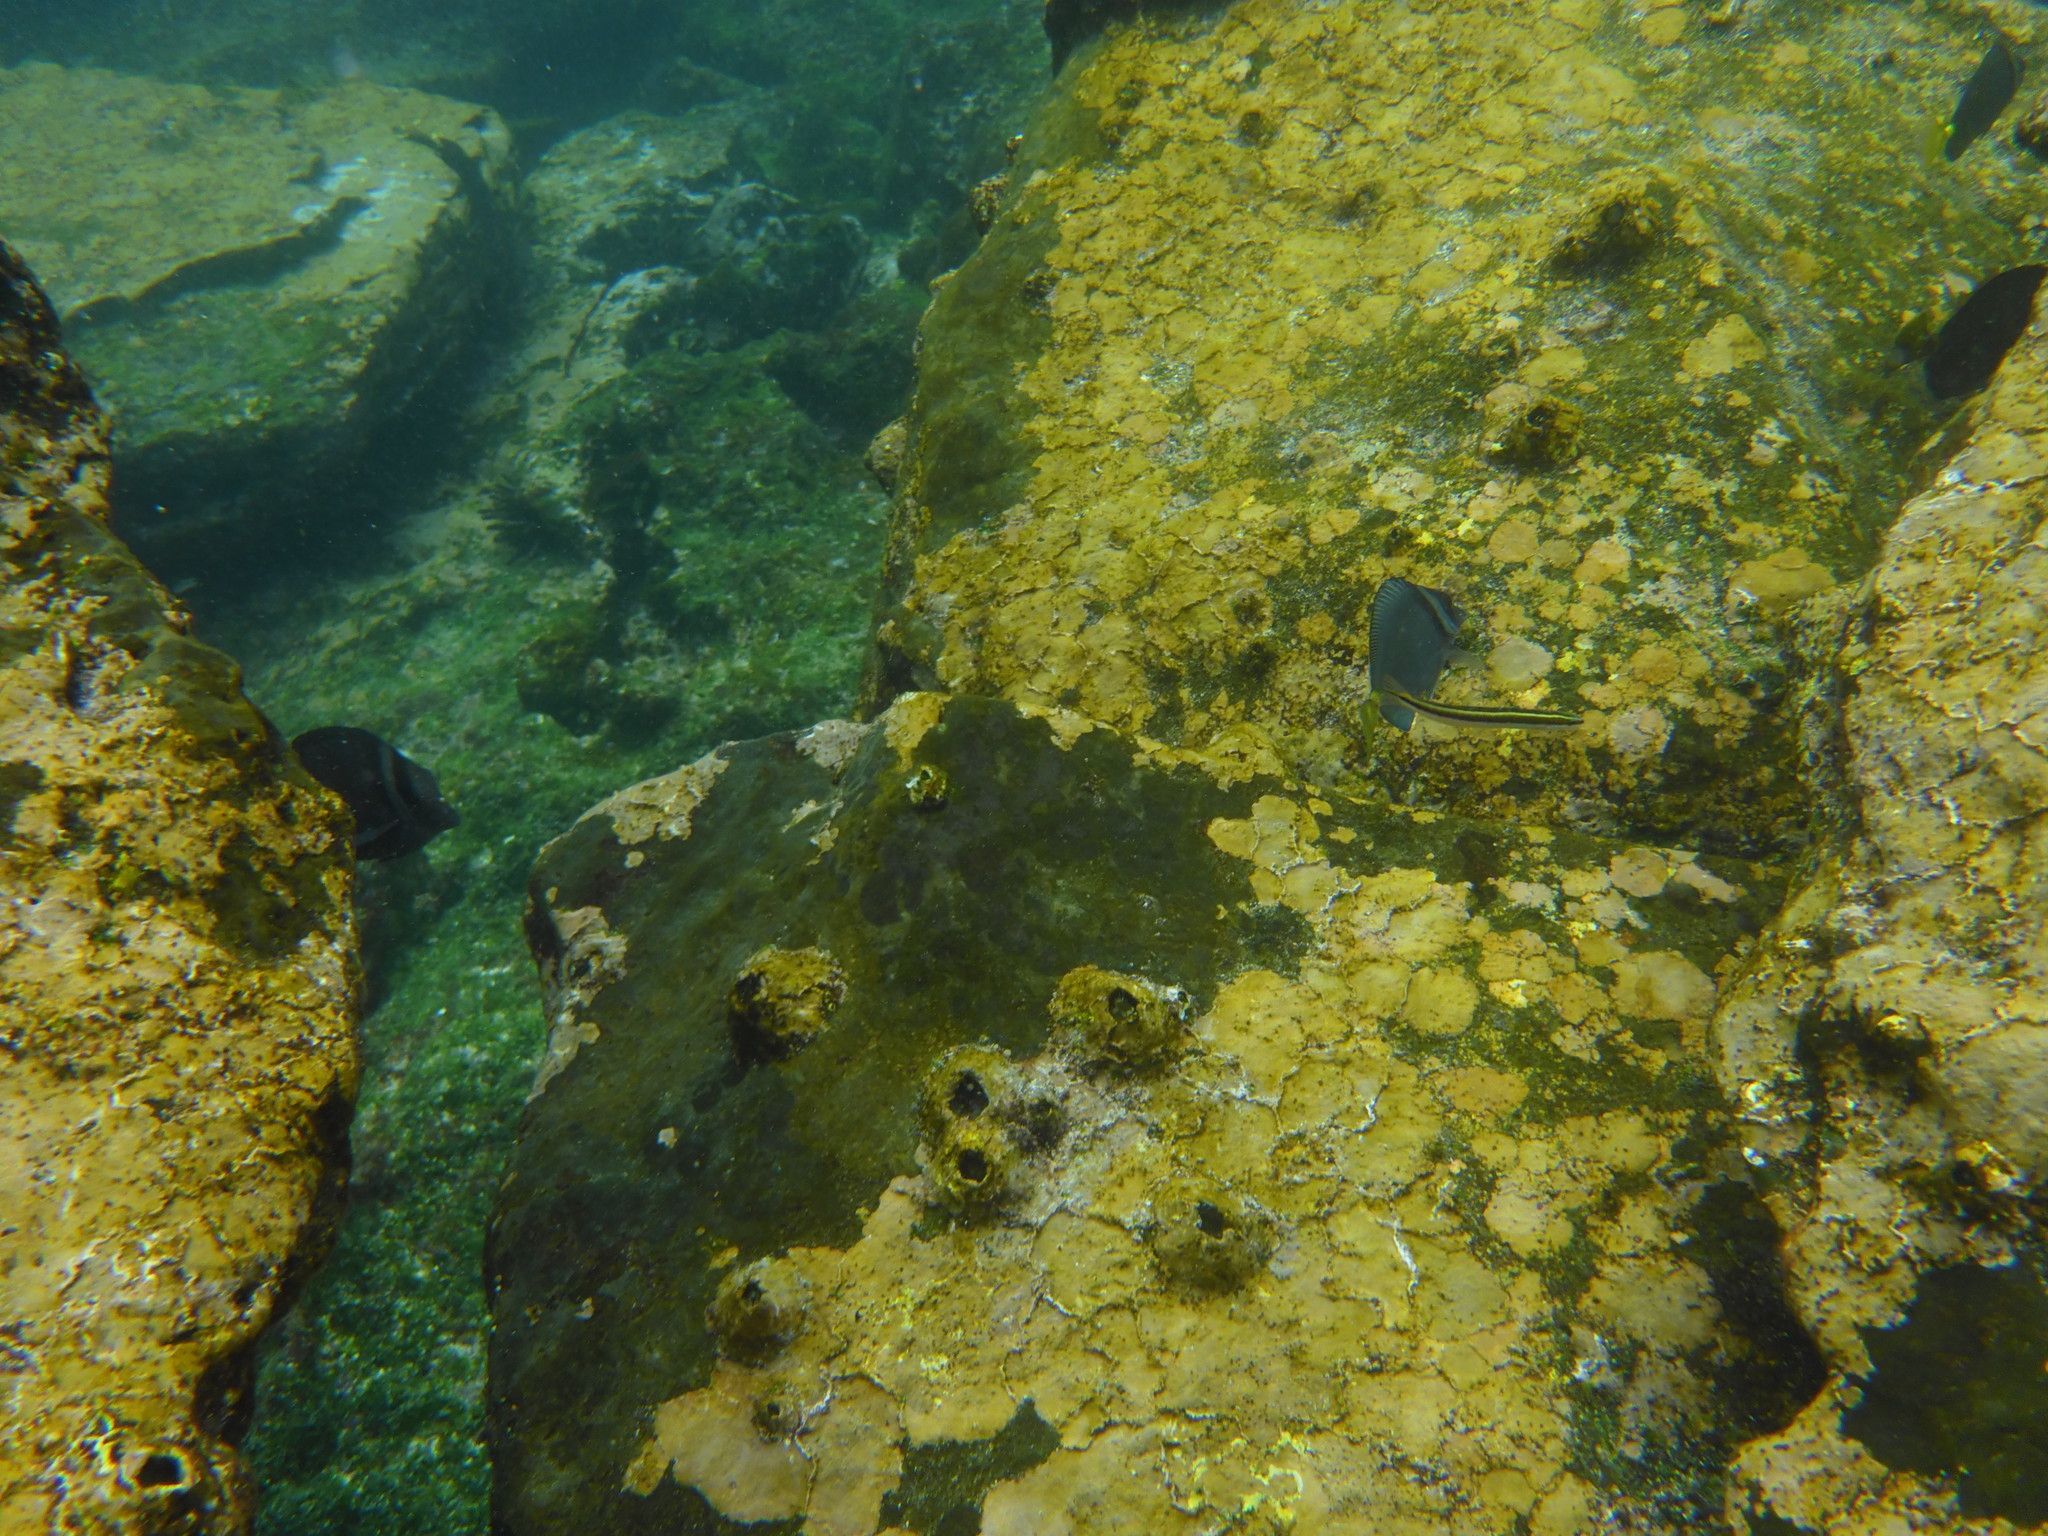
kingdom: Animalia
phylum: Chordata
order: Perciformes
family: Acanthuridae
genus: Prionurus
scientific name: Prionurus laticlavius
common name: Razor surgeonfish
